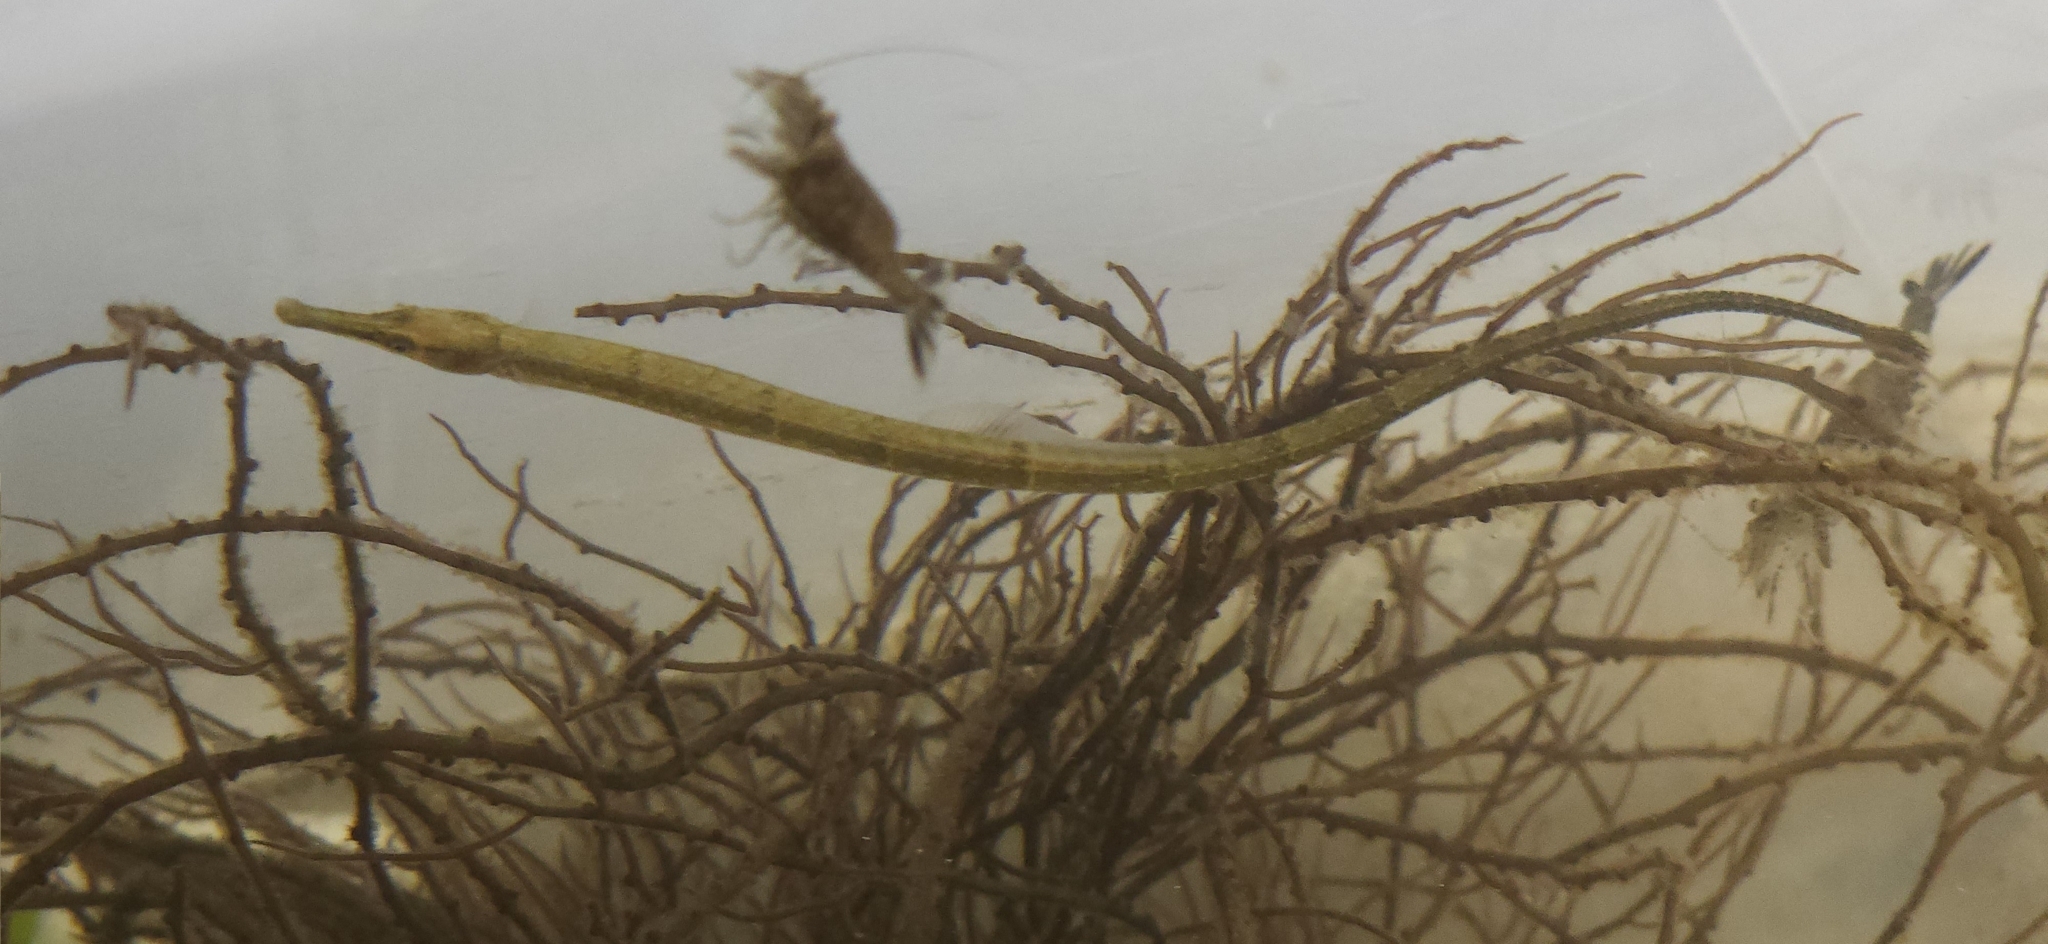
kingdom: Animalia
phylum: Chordata
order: Syngnathiformes
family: Syngnathidae
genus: Syngnathus
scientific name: Syngnathus fuscus
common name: Northern pipefish
